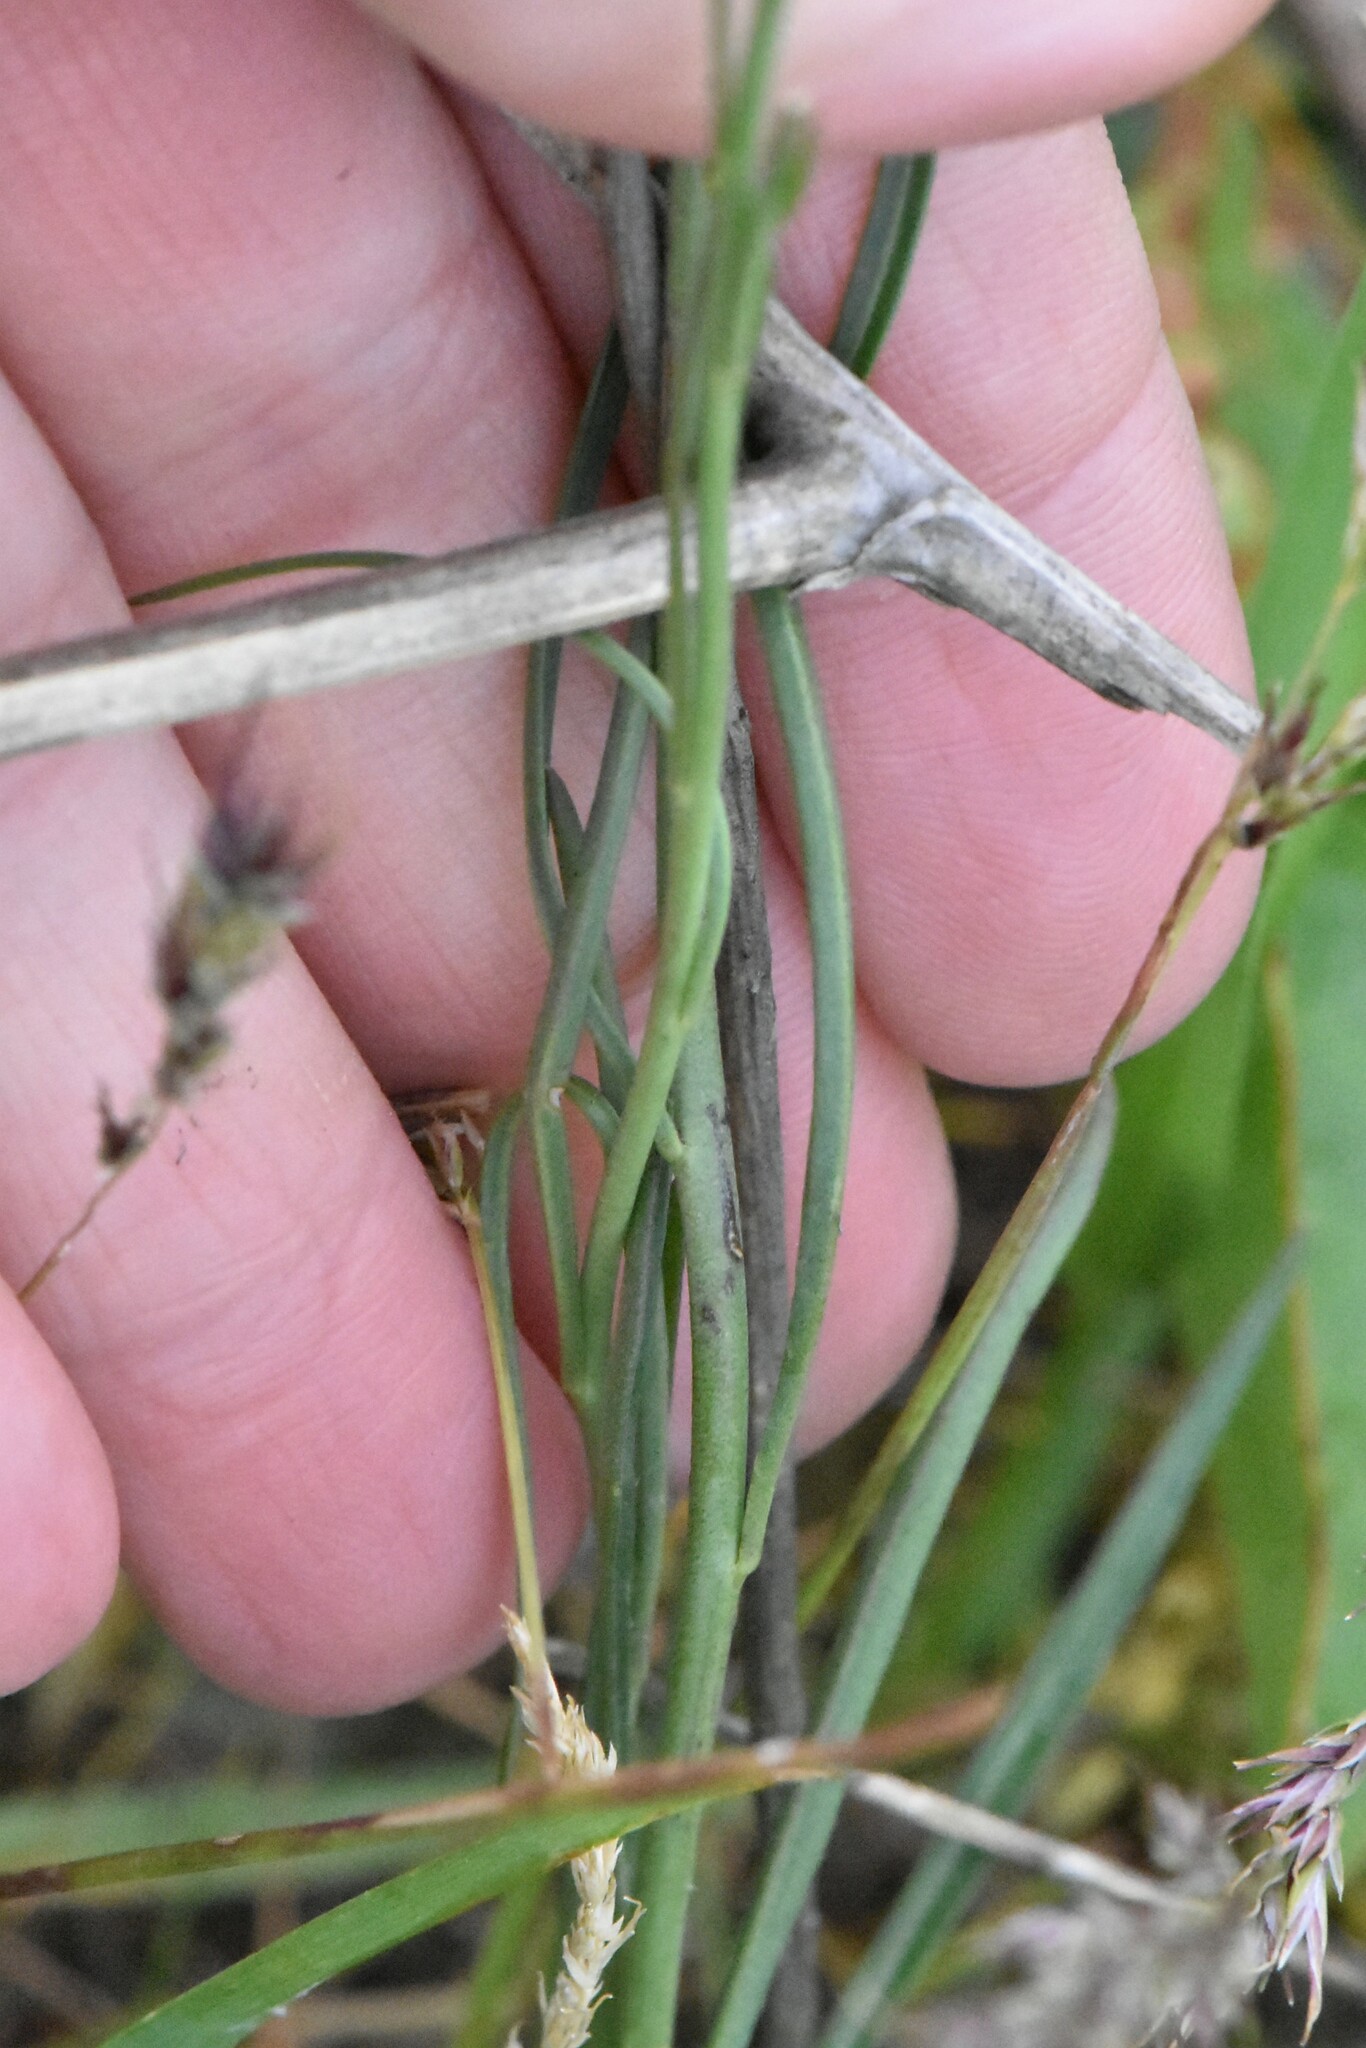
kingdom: Plantae
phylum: Tracheophyta
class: Magnoliopsida
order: Brassicales
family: Brassicaceae
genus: Sisymbrium
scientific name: Sisymbrium polymorphum
